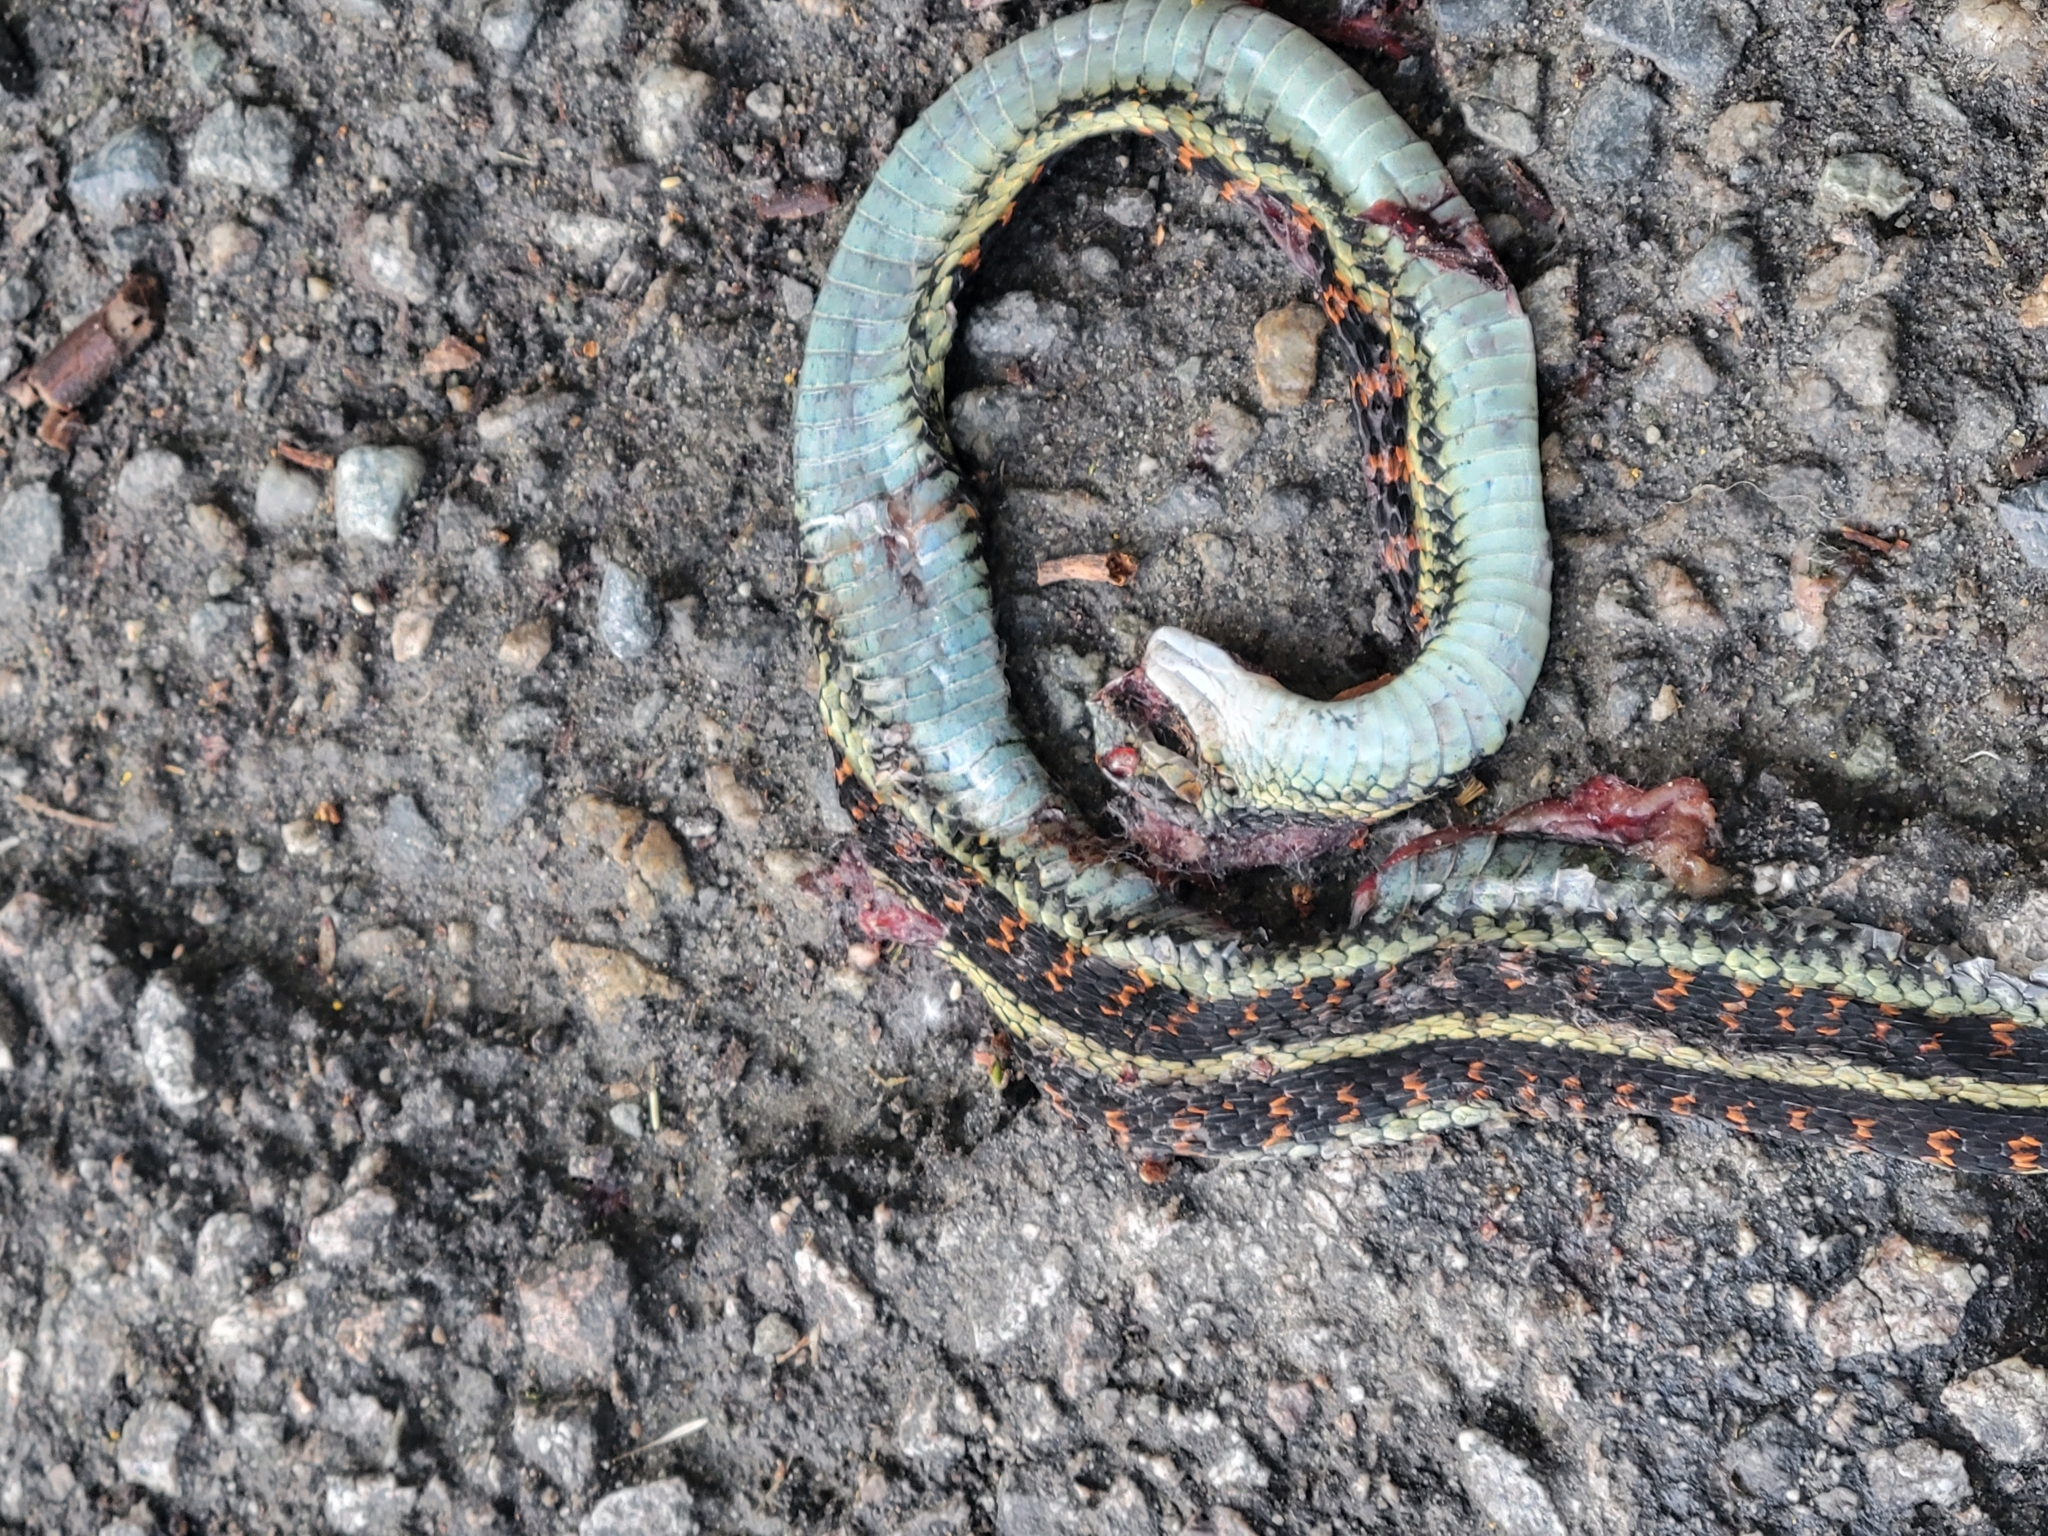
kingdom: Animalia
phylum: Chordata
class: Squamata
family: Colubridae
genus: Thamnophis
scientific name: Thamnophis sirtalis
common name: Common garter snake
